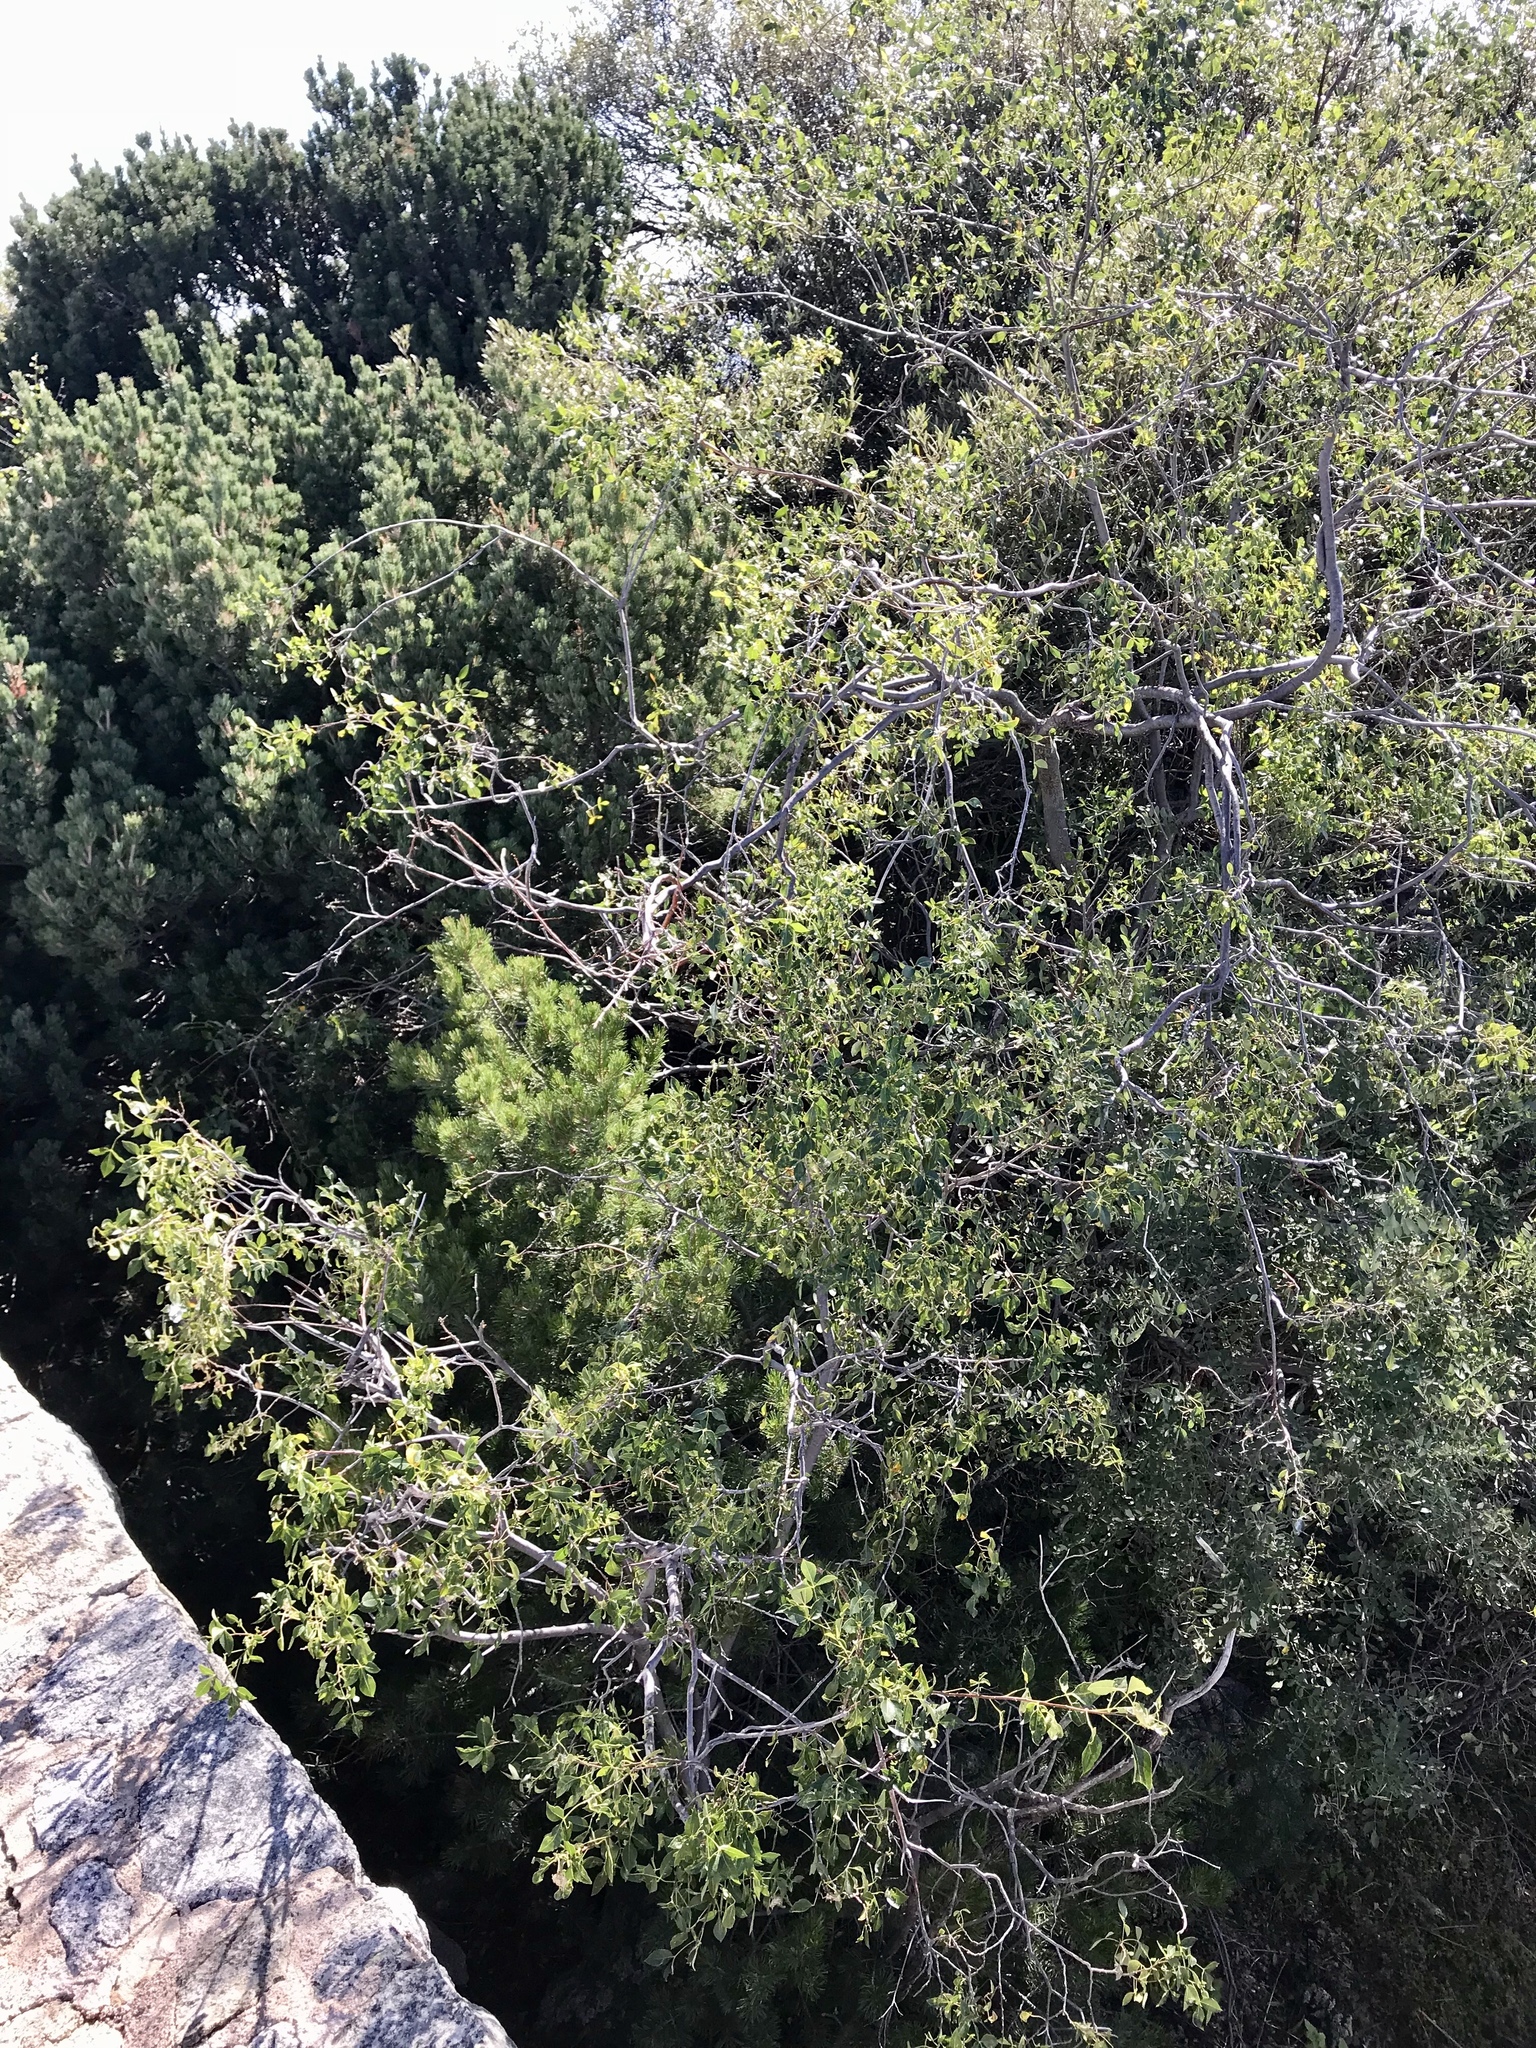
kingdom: Plantae
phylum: Tracheophyta
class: Magnoliopsida
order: Lamiales
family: Oleaceae
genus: Fraxinus
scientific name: Fraxinus velutina
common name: Arizon ash
